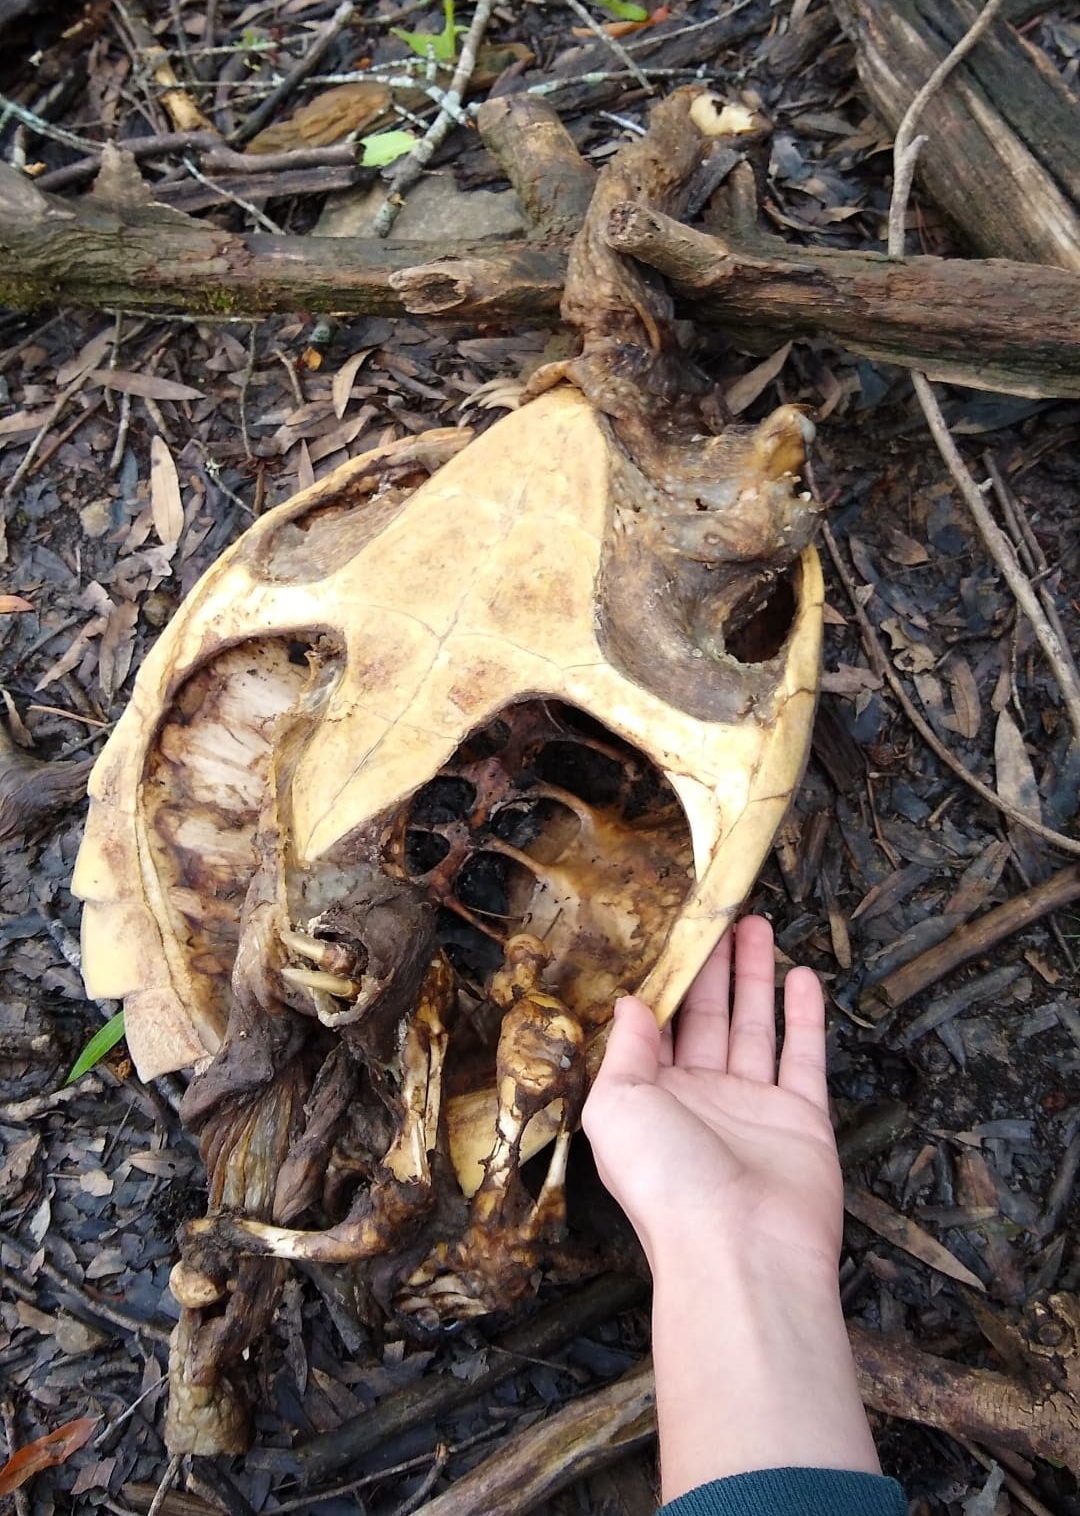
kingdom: Animalia
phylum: Chordata
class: Testudines
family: Chelydridae
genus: Chelydra
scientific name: Chelydra serpentina
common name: Common snapping turtle
